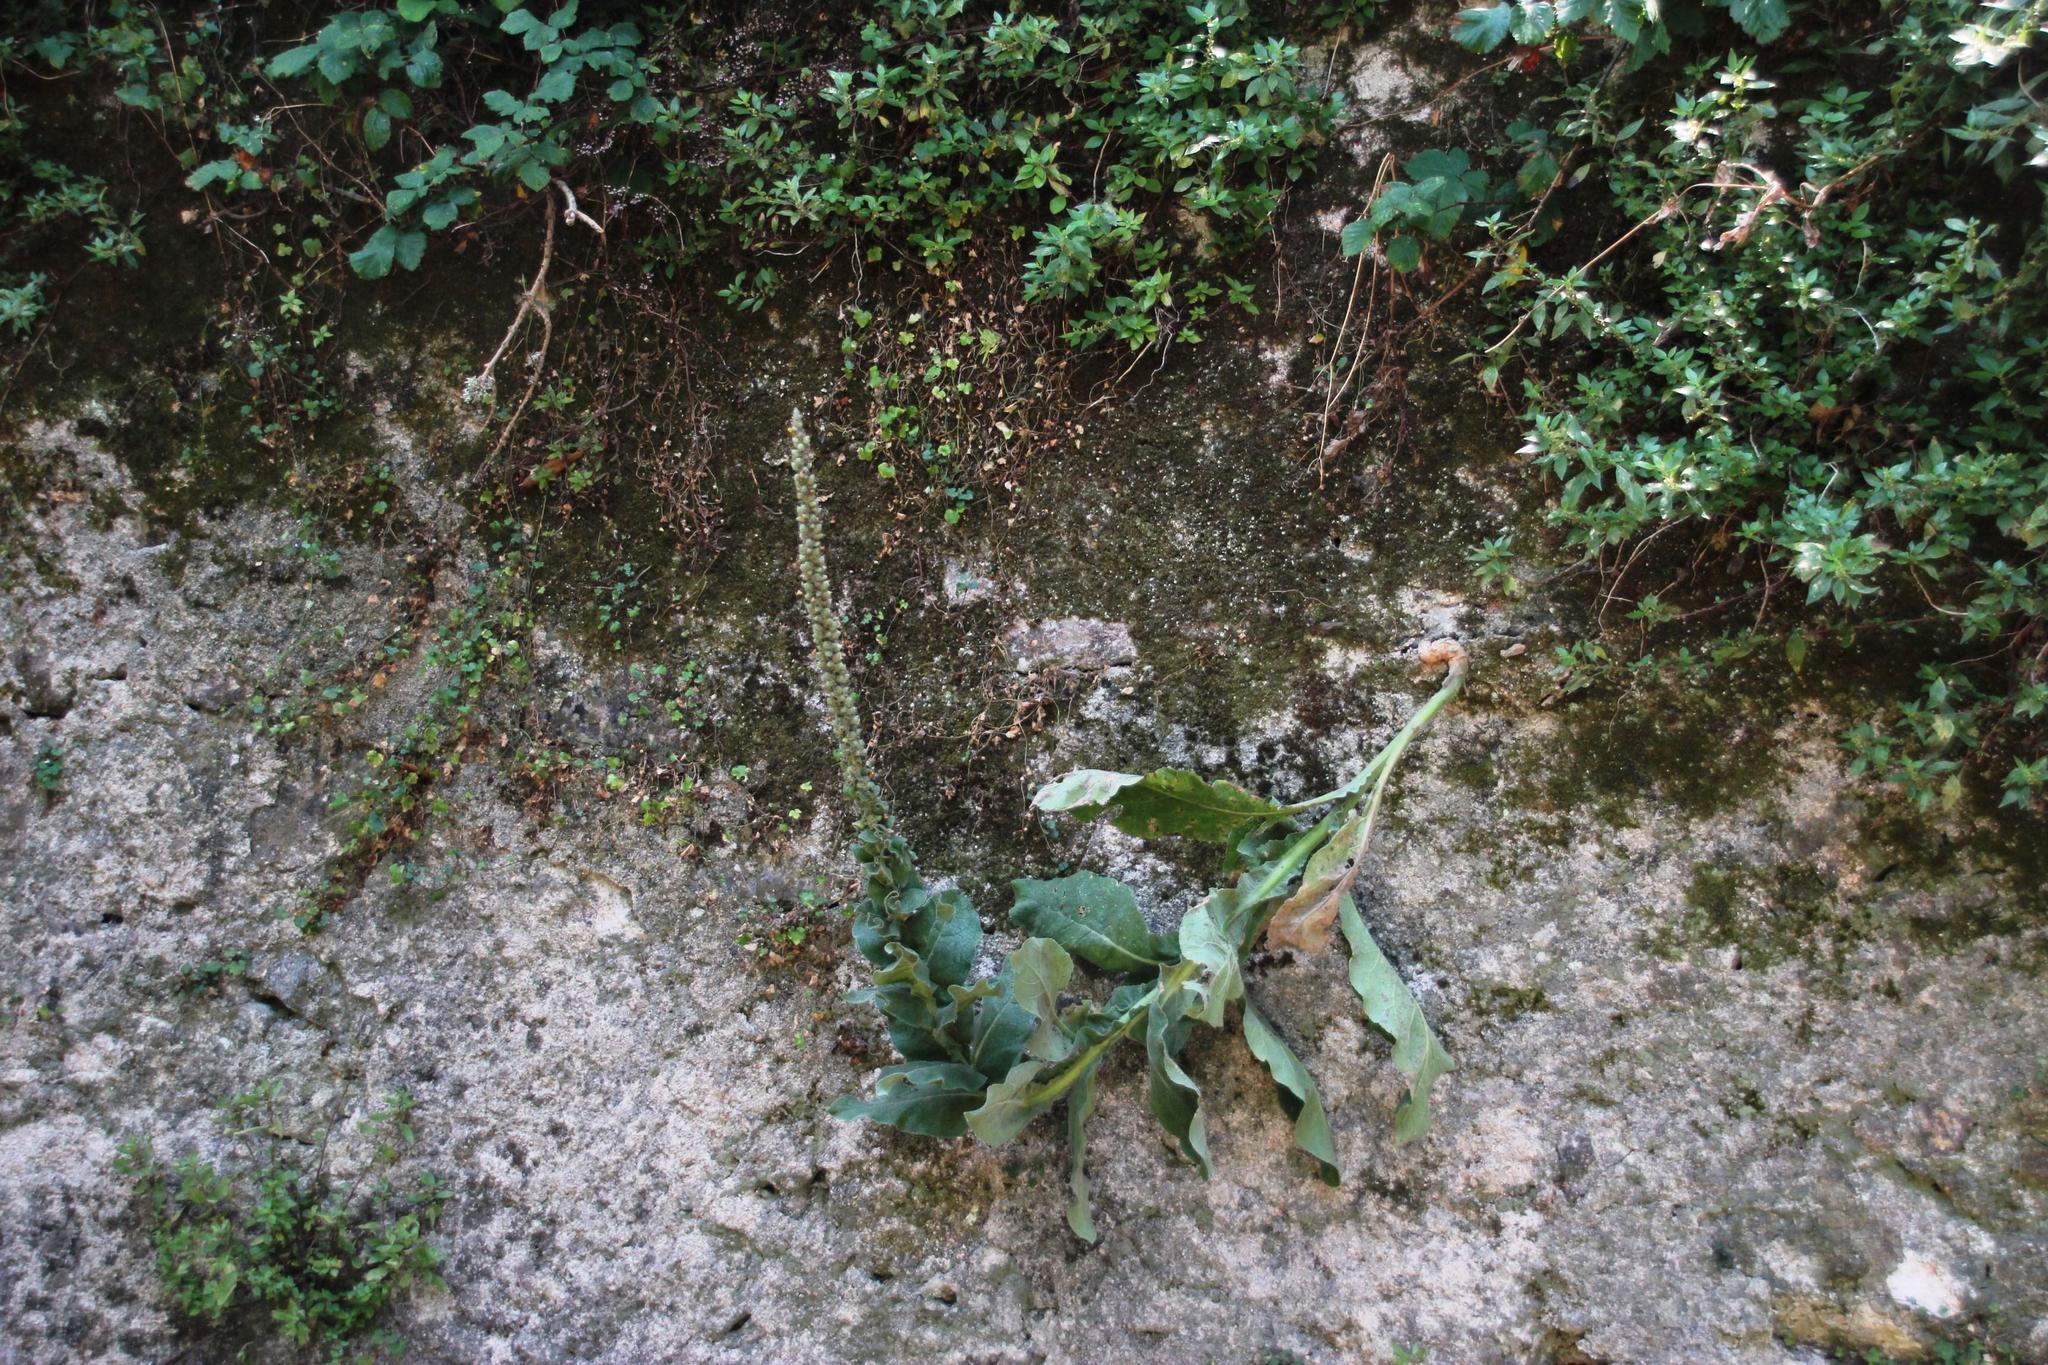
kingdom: Plantae
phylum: Tracheophyta
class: Magnoliopsida
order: Lamiales
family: Scrophulariaceae
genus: Verbascum
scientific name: Verbascum giganteum
